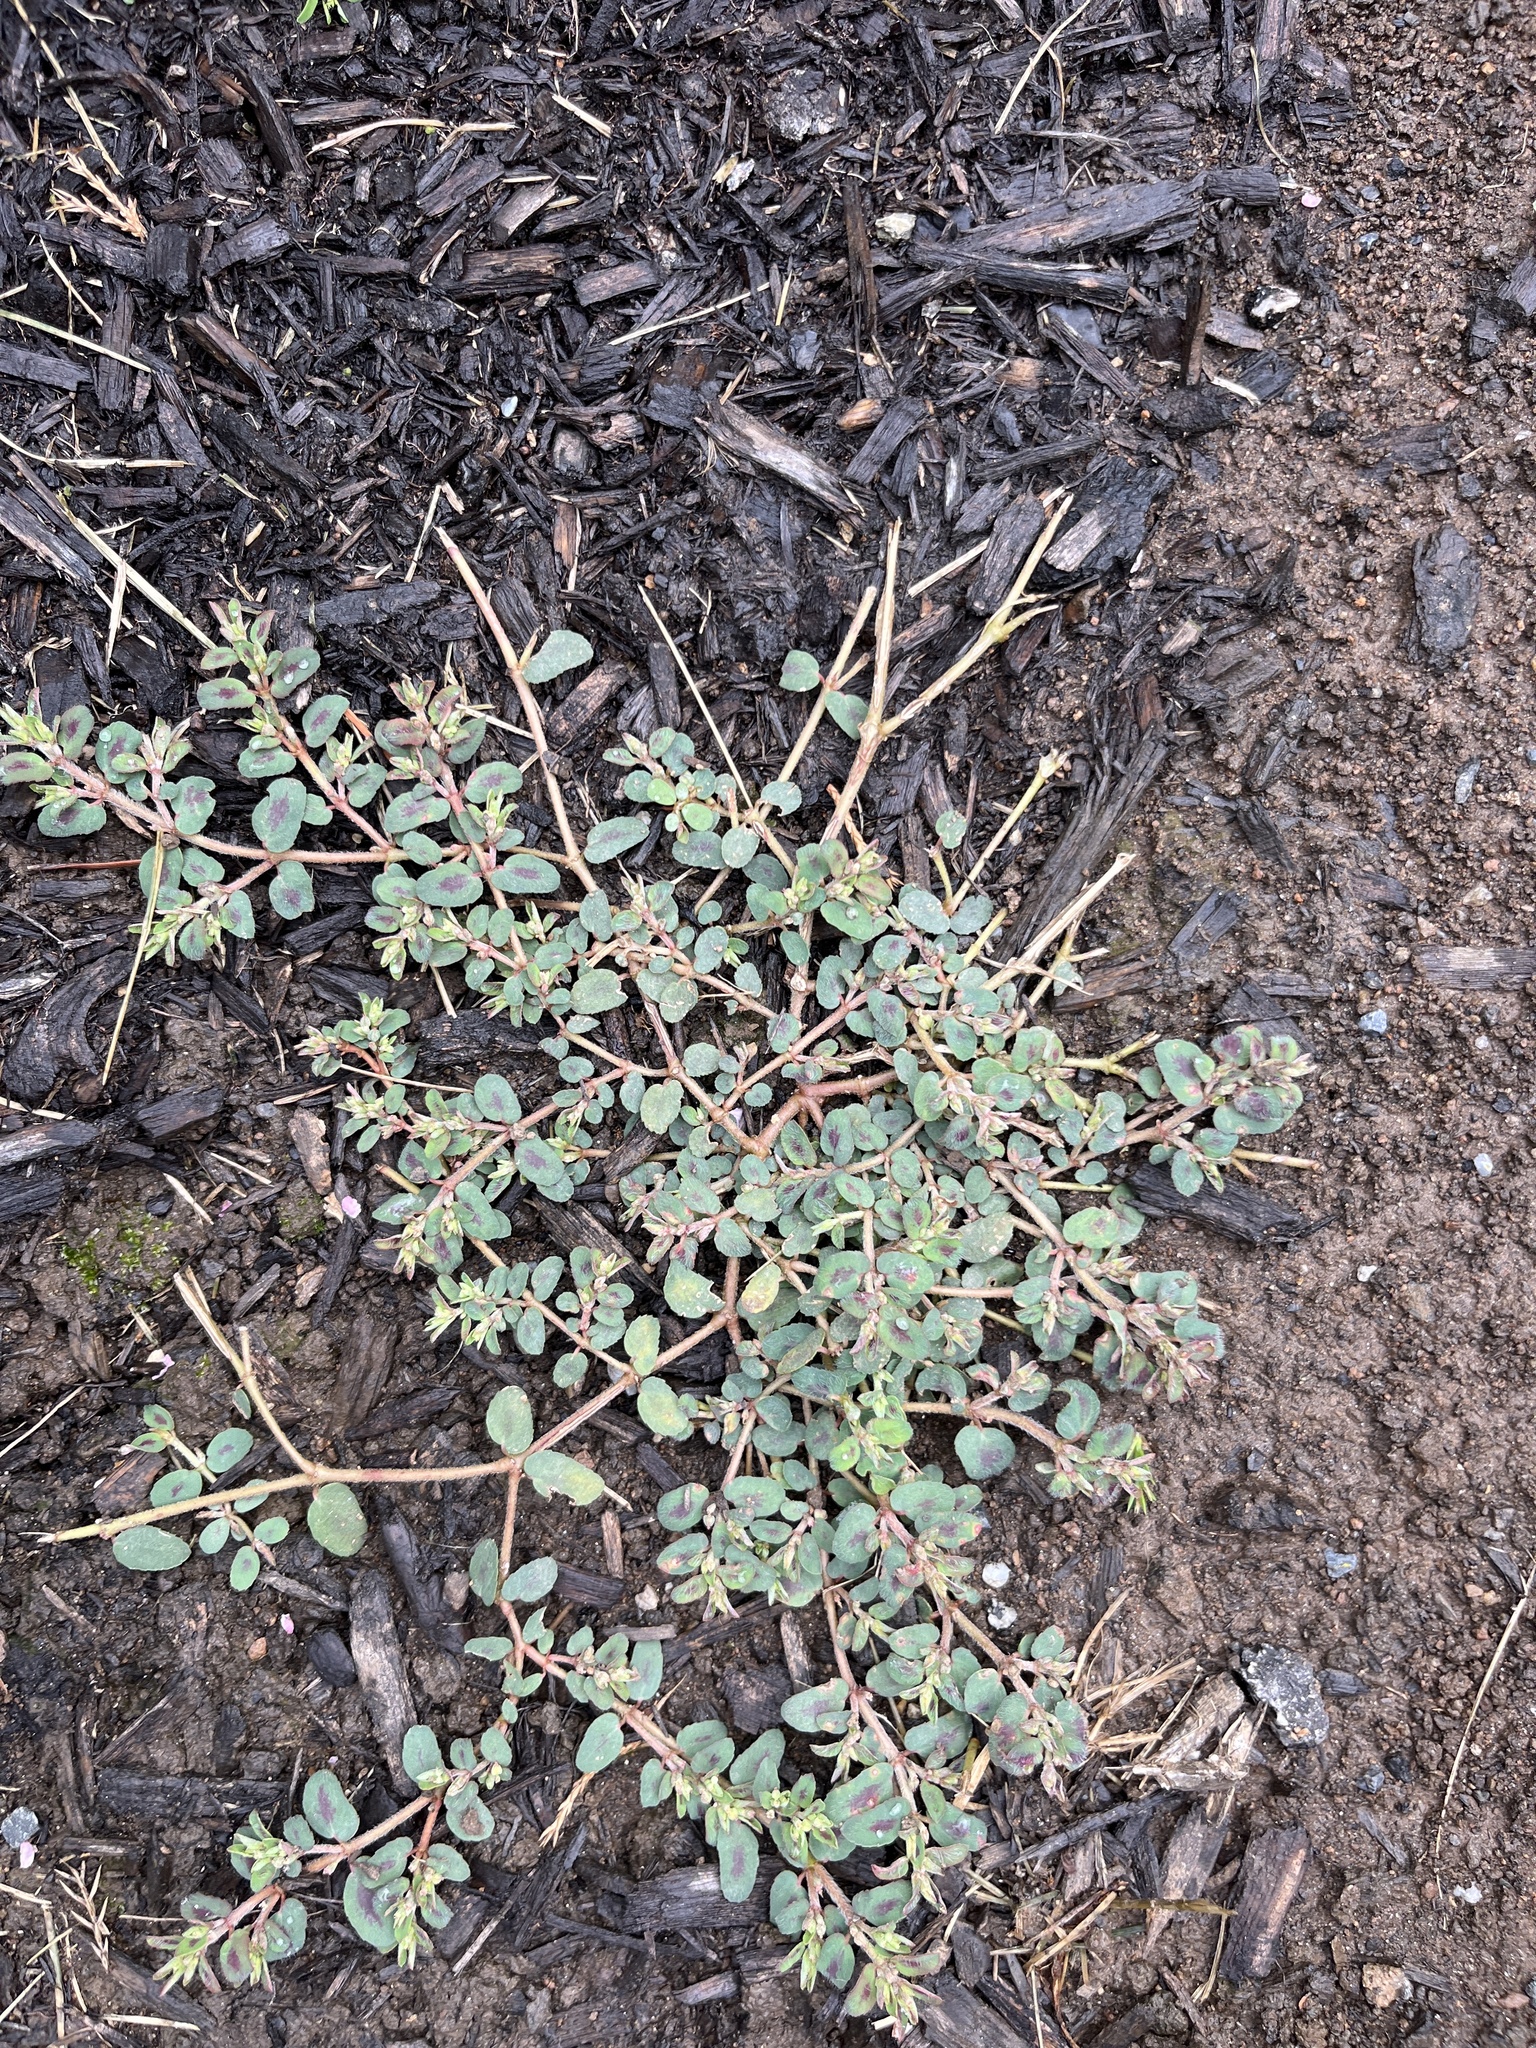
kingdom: Plantae
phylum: Tracheophyta
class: Magnoliopsida
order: Malpighiales
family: Euphorbiaceae
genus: Euphorbia
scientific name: Euphorbia maculata
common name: Spotted spurge
